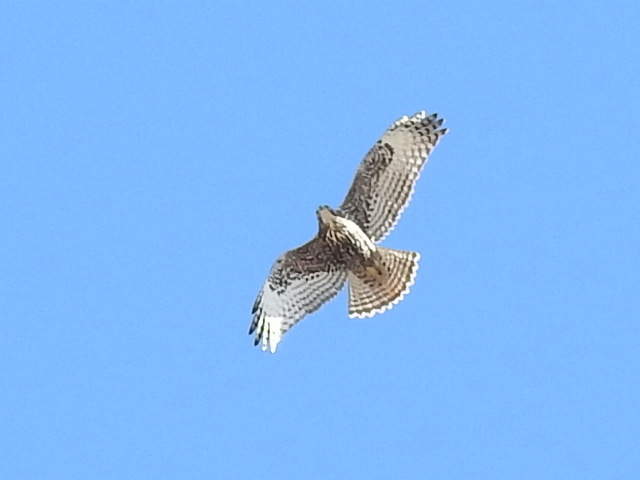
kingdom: Animalia
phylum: Chordata
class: Aves
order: Accipitriformes
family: Accipitridae
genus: Buteo
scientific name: Buteo jamaicensis
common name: Red-tailed hawk
